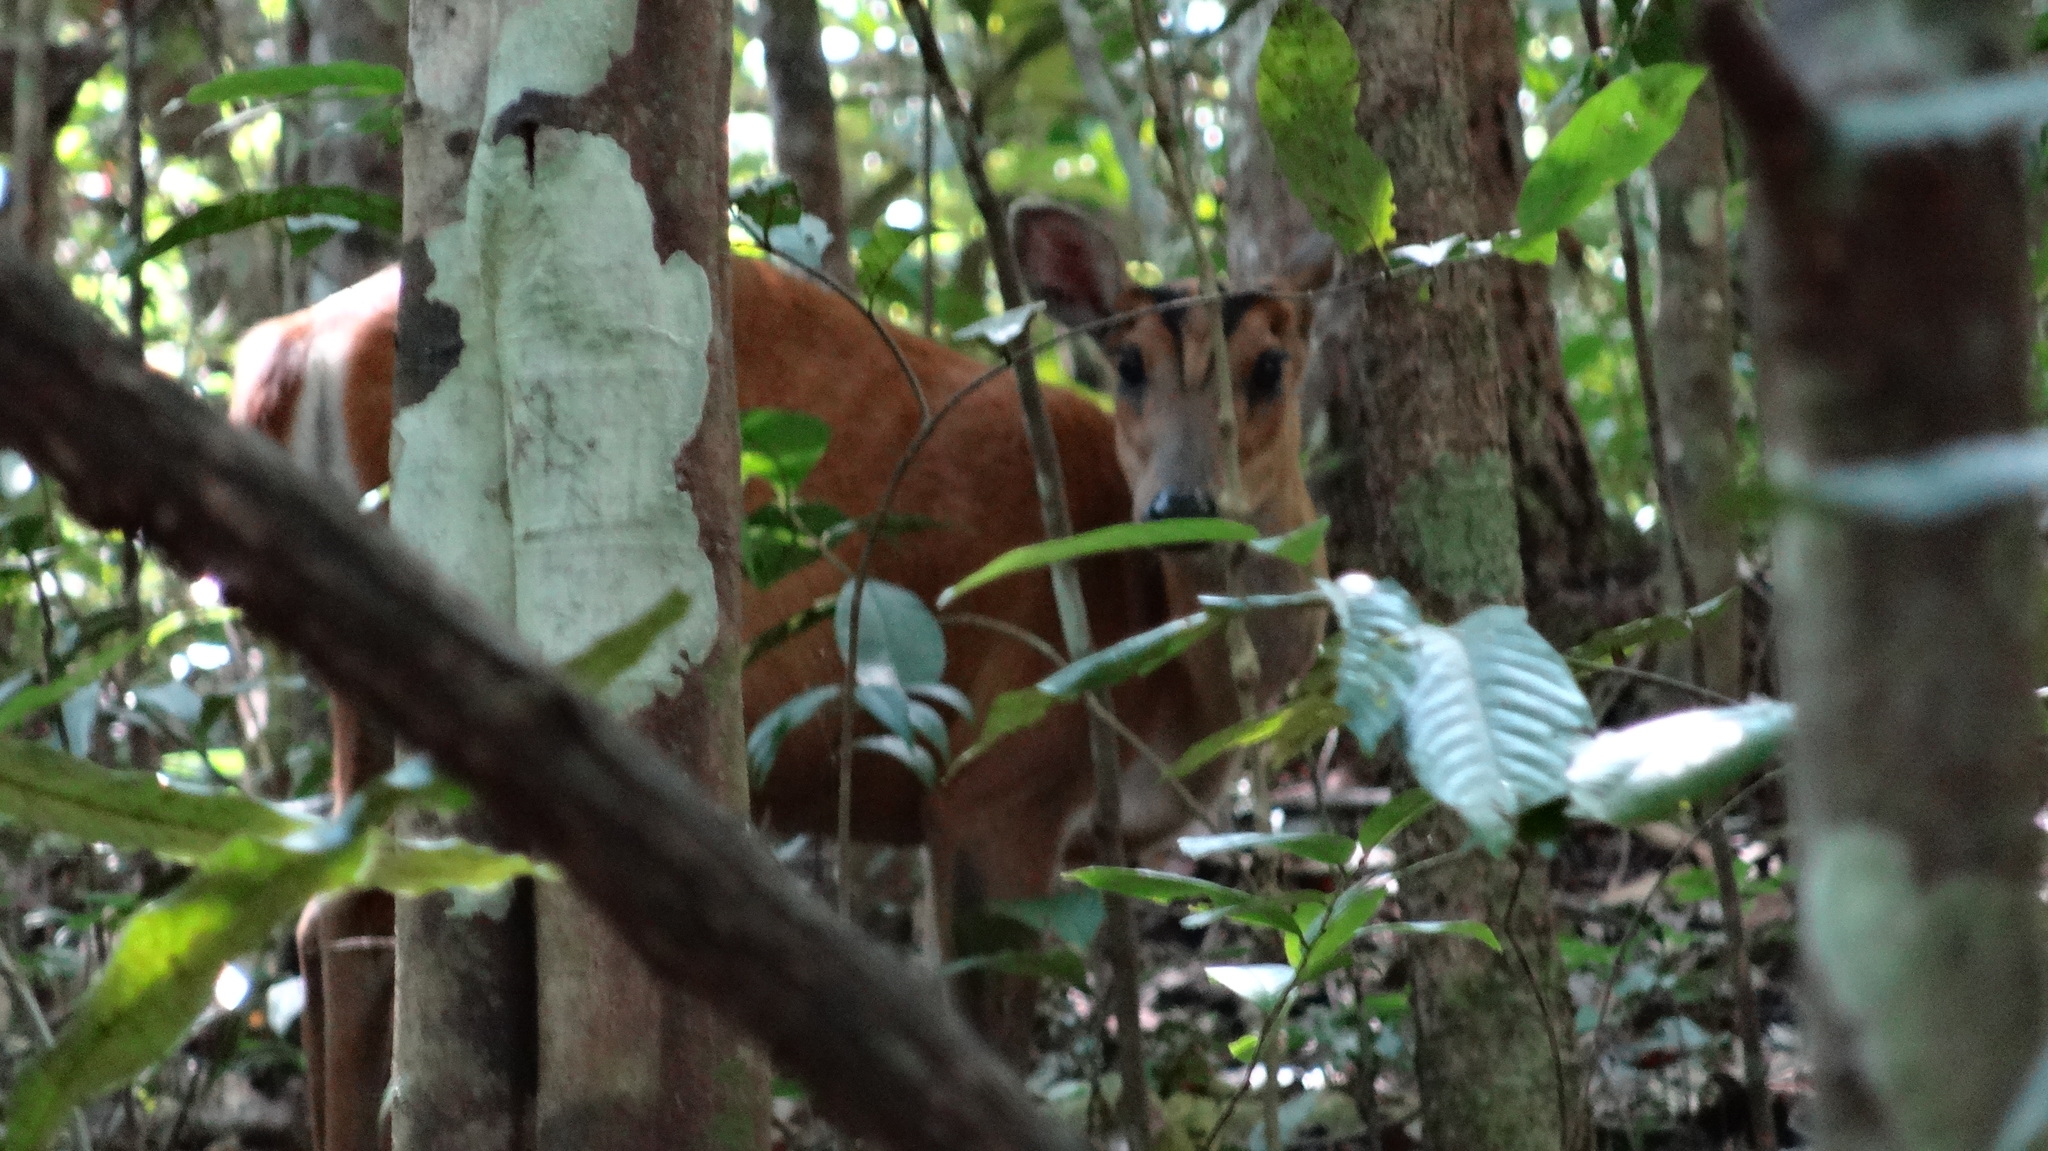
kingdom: Animalia
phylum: Chordata
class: Mammalia
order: Artiodactyla
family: Cervidae
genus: Muntiacus
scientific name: Muntiacus muntjak
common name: Indian muntjac
